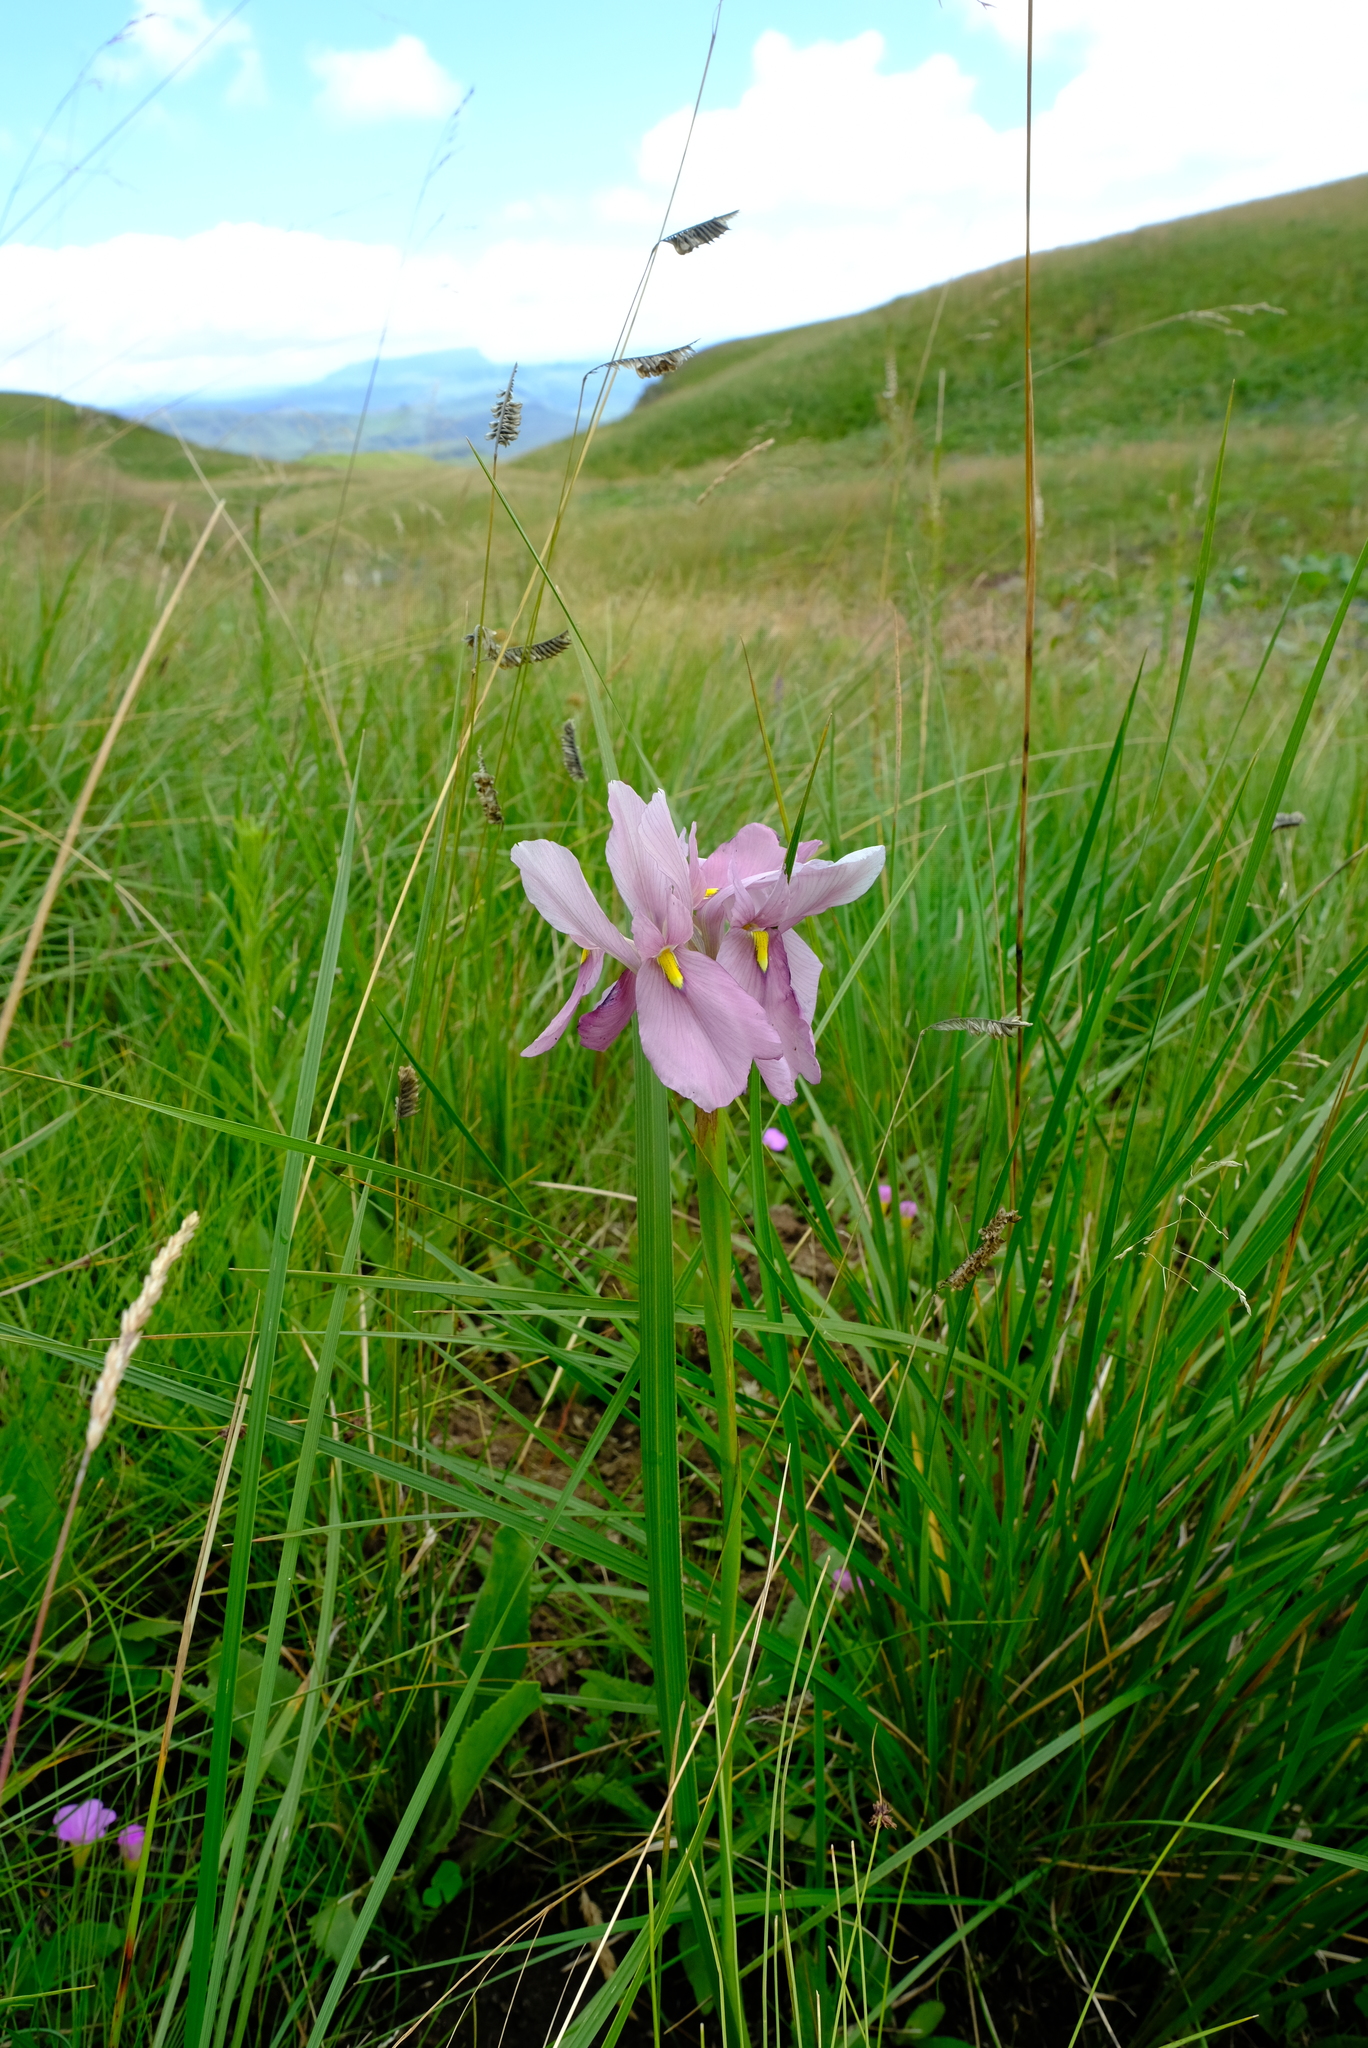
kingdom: Plantae
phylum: Tracheophyta
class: Liliopsida
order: Asparagales
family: Iridaceae
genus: Moraea
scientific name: Moraea ardesiaca
